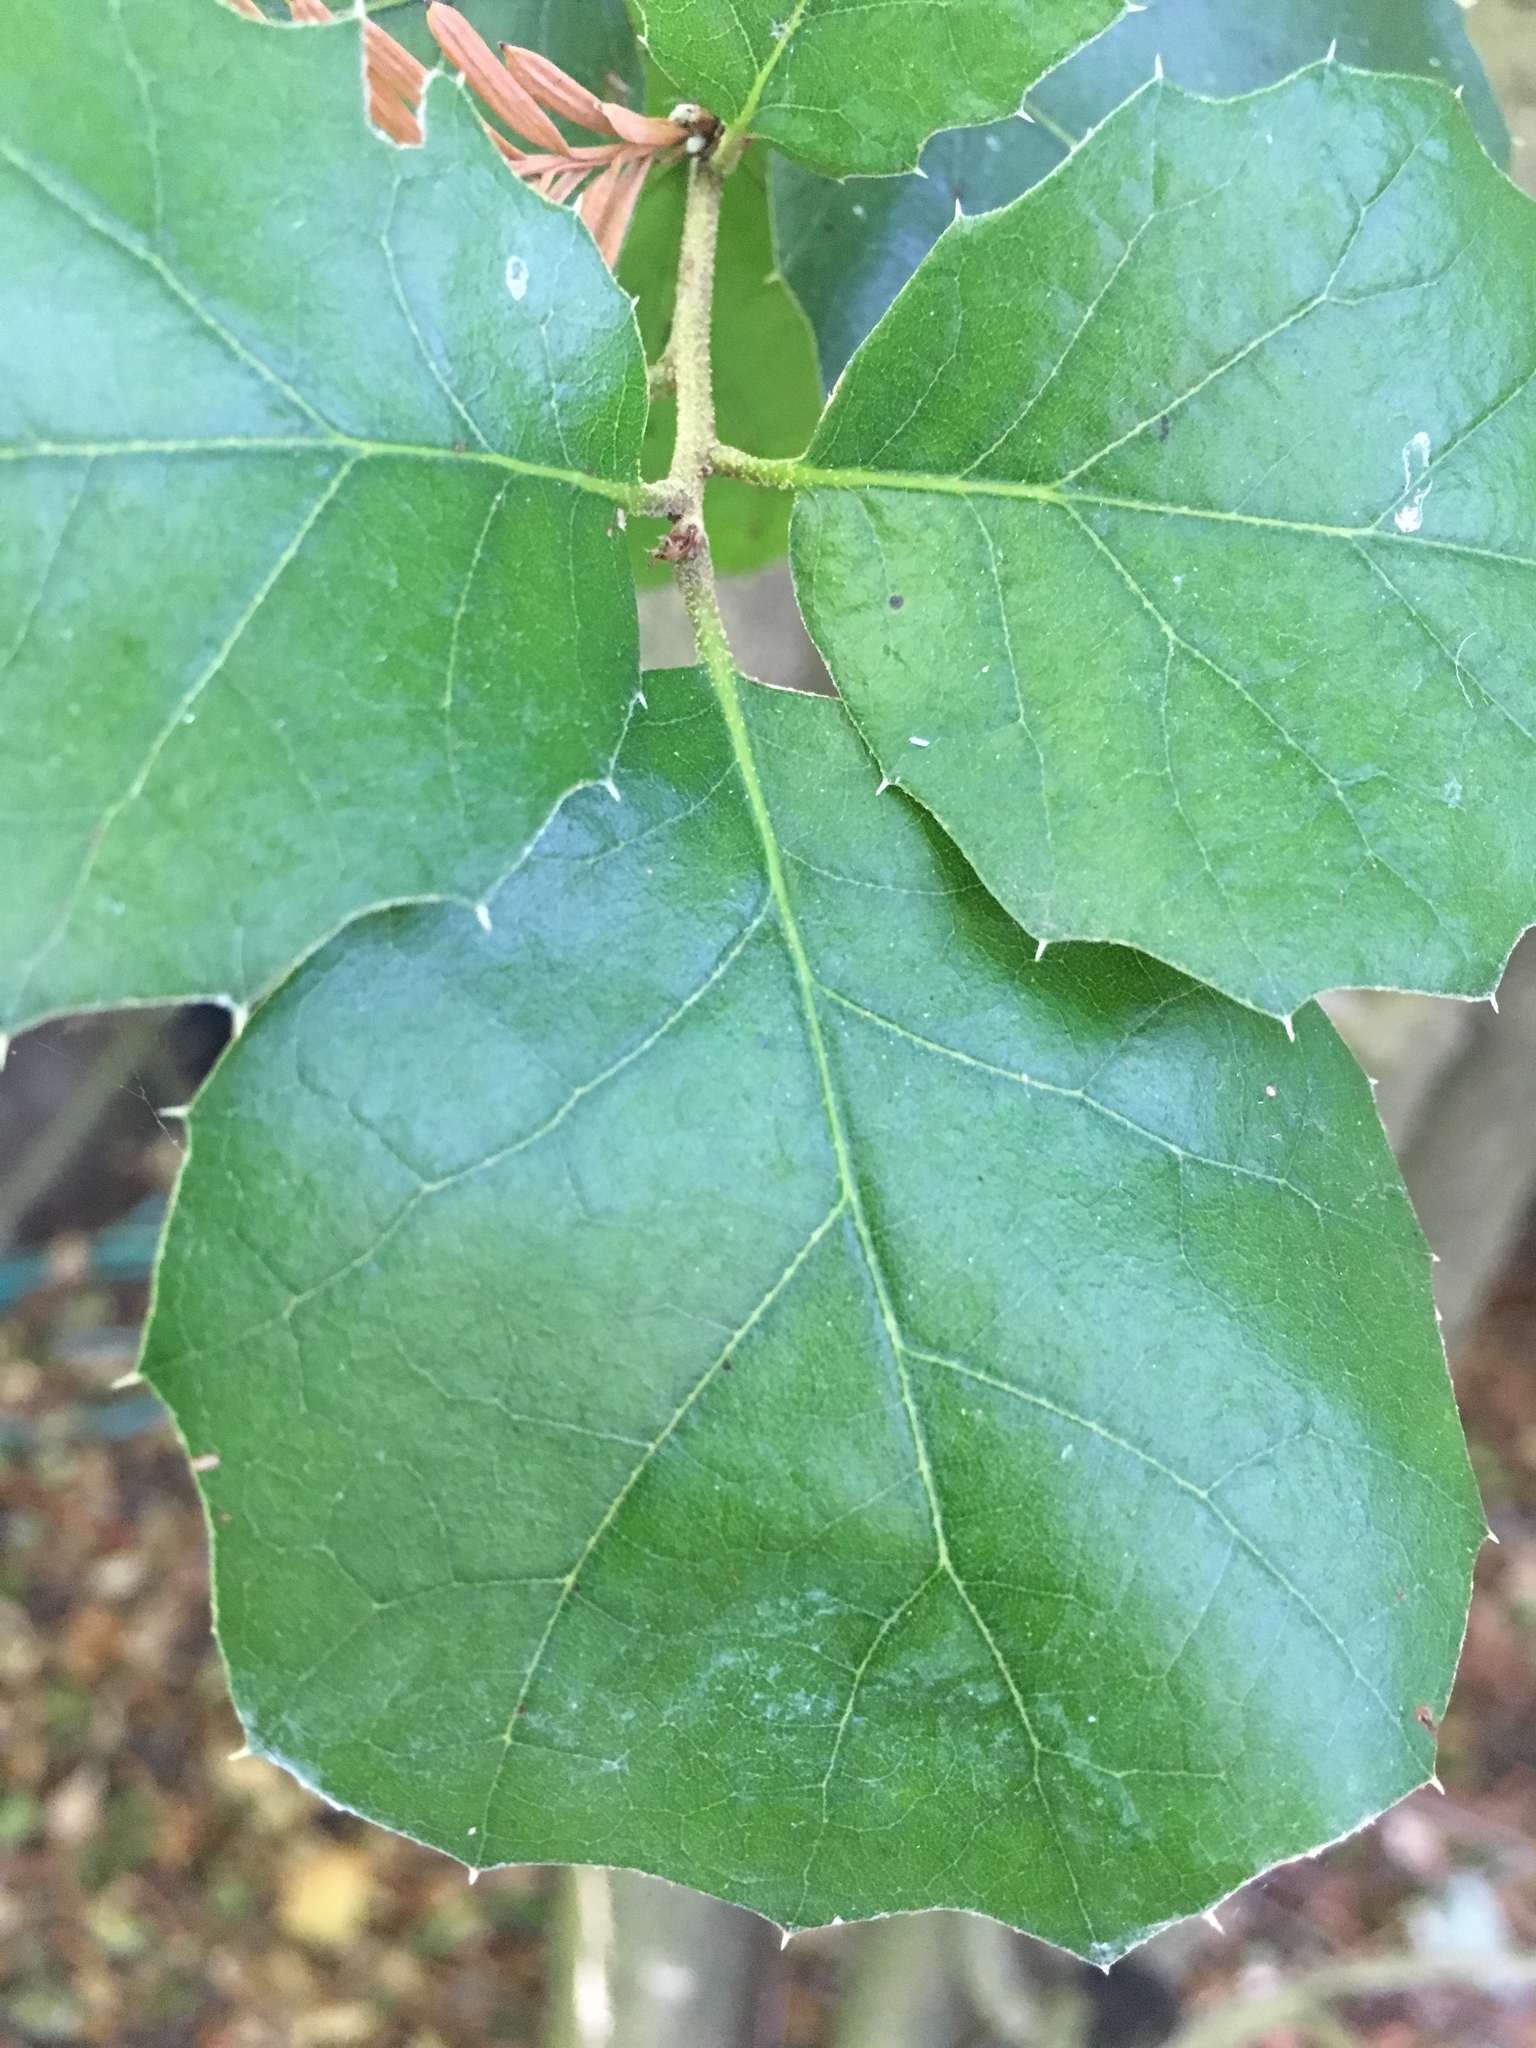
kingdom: Plantae
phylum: Tracheophyta
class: Magnoliopsida
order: Fagales
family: Fagaceae
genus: Quercus
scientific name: Quercus agrifolia
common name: California live oak
